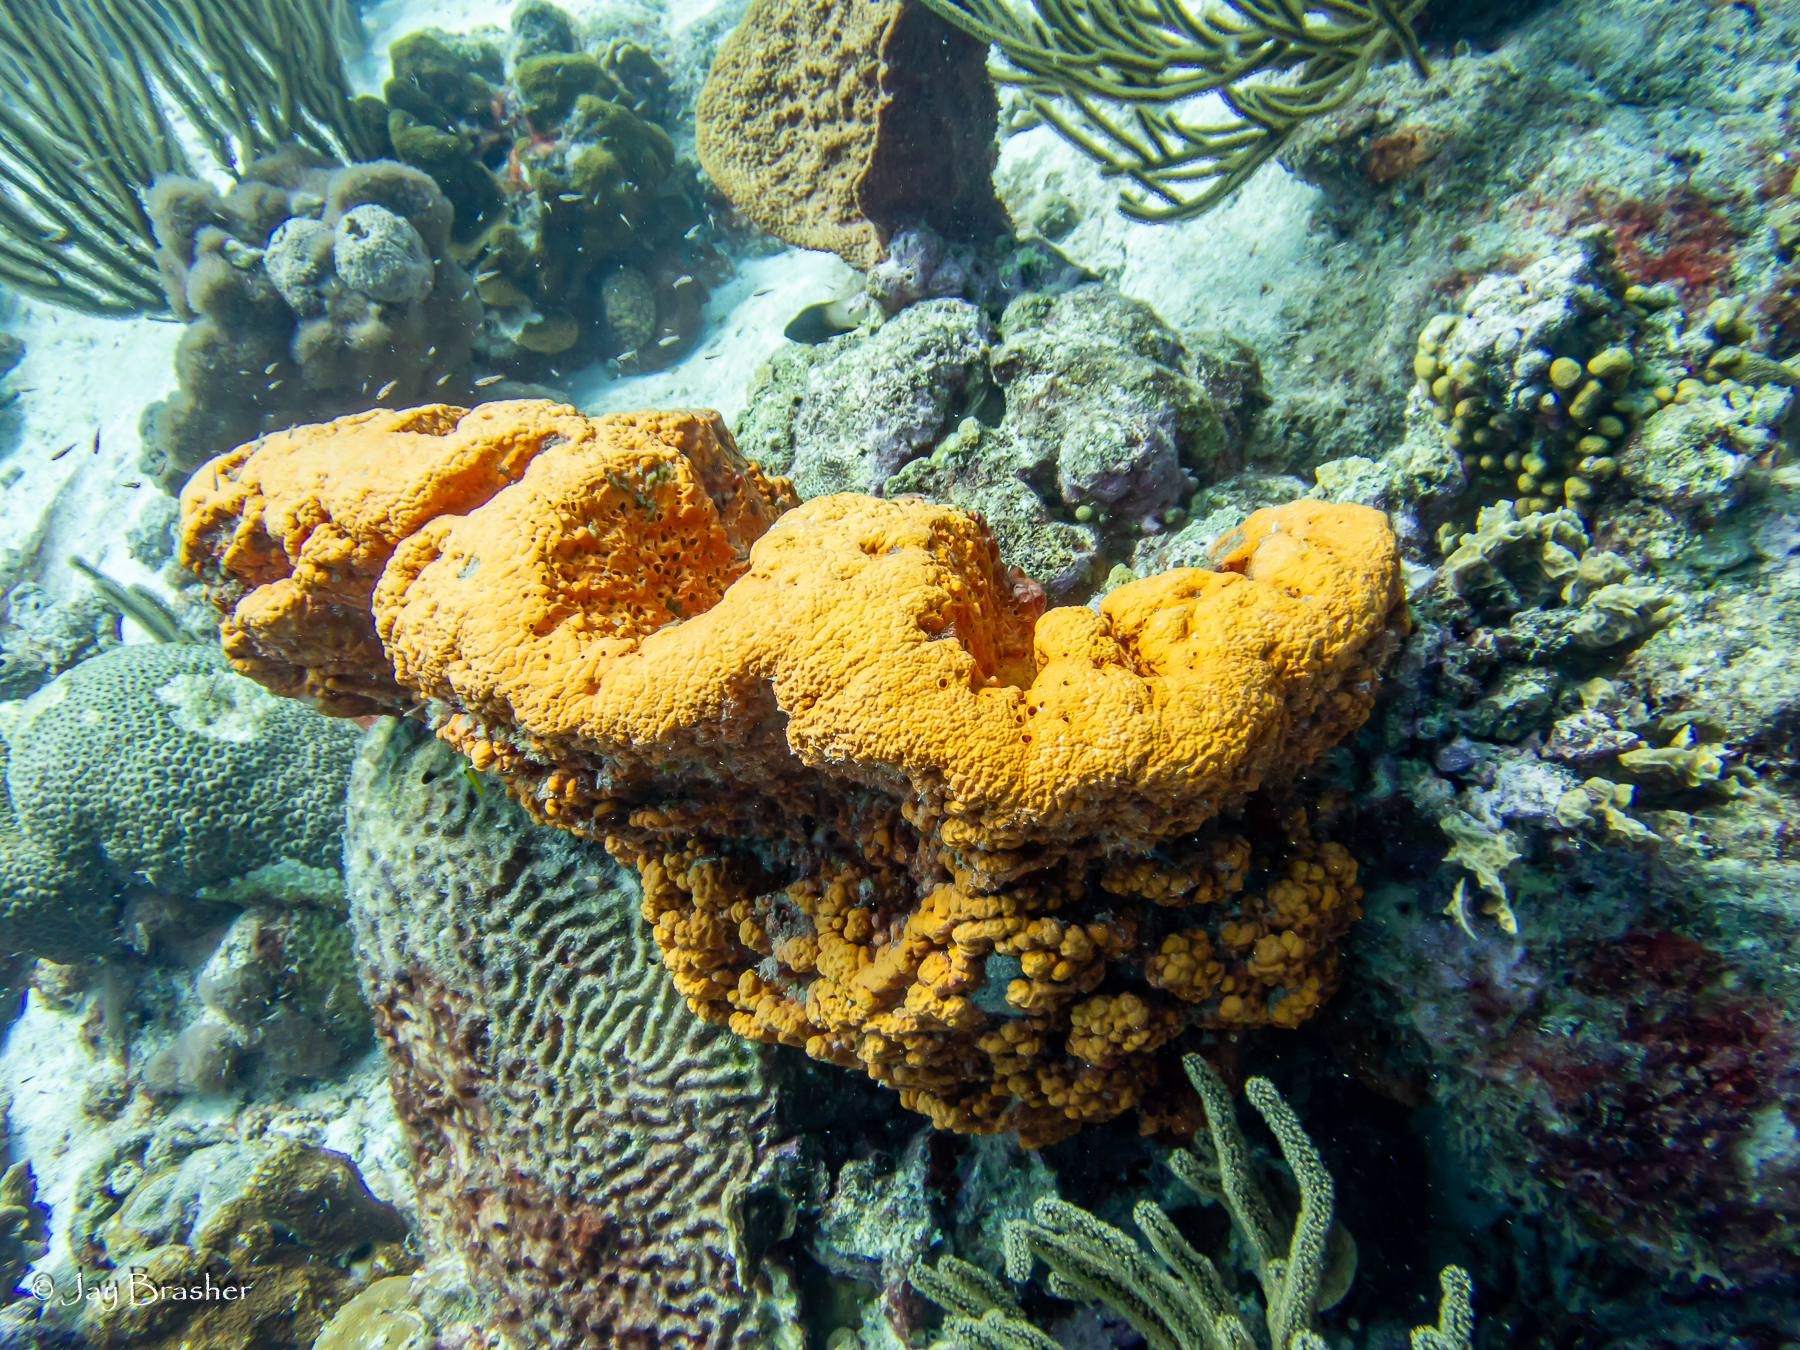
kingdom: Animalia
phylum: Porifera
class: Demospongiae
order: Agelasida
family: Agelasidae
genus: Agelas
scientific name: Agelas clathrodes
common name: Orange elephant ear sponge
